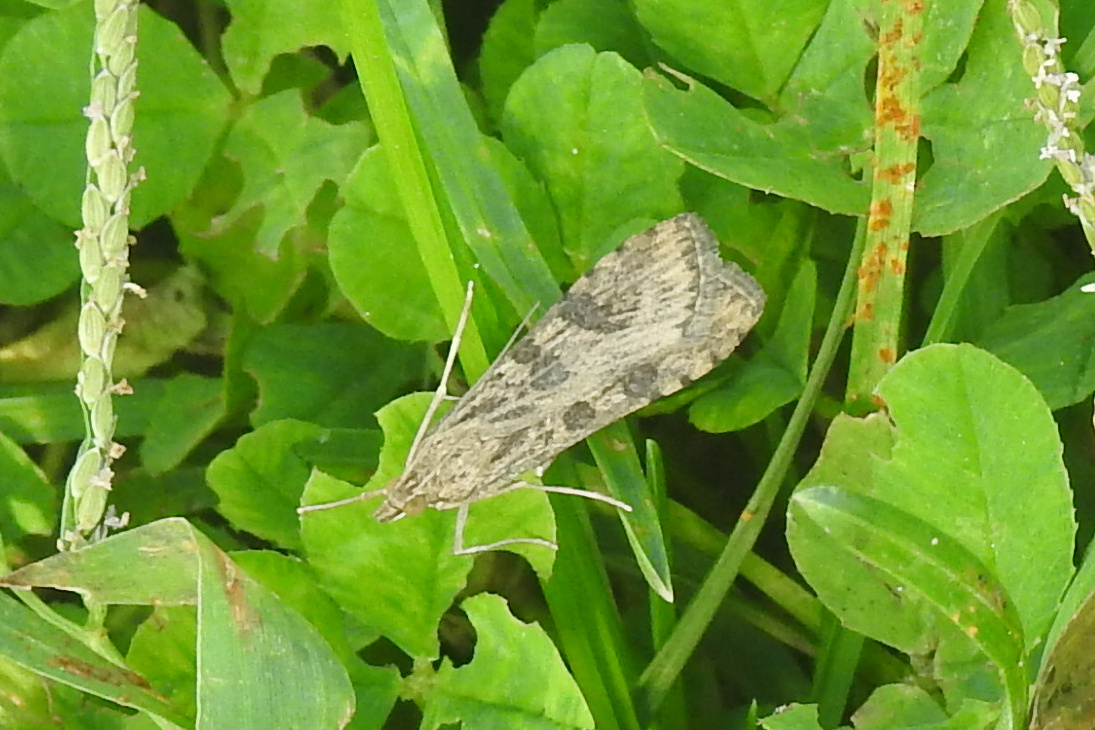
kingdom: Animalia
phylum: Arthropoda
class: Insecta
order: Lepidoptera
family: Crambidae
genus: Nomophila
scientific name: Nomophila nearctica
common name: American rush veneer
